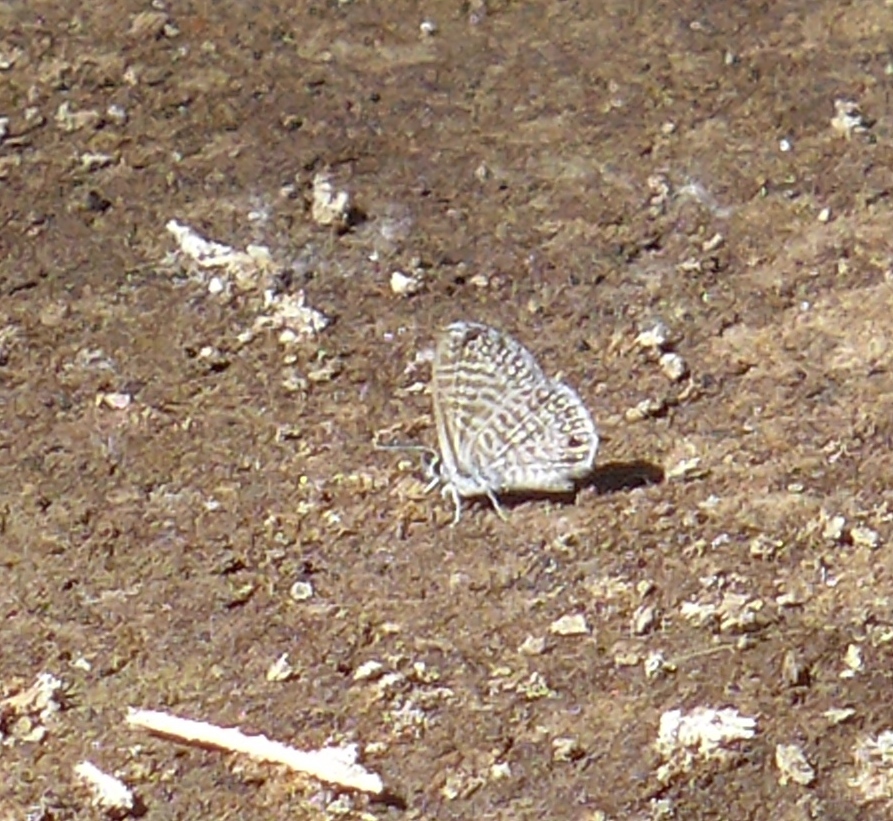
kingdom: Animalia
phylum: Arthropoda
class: Insecta
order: Lepidoptera
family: Lycaenidae
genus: Leptotes
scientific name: Leptotes marina
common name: Marine blue
